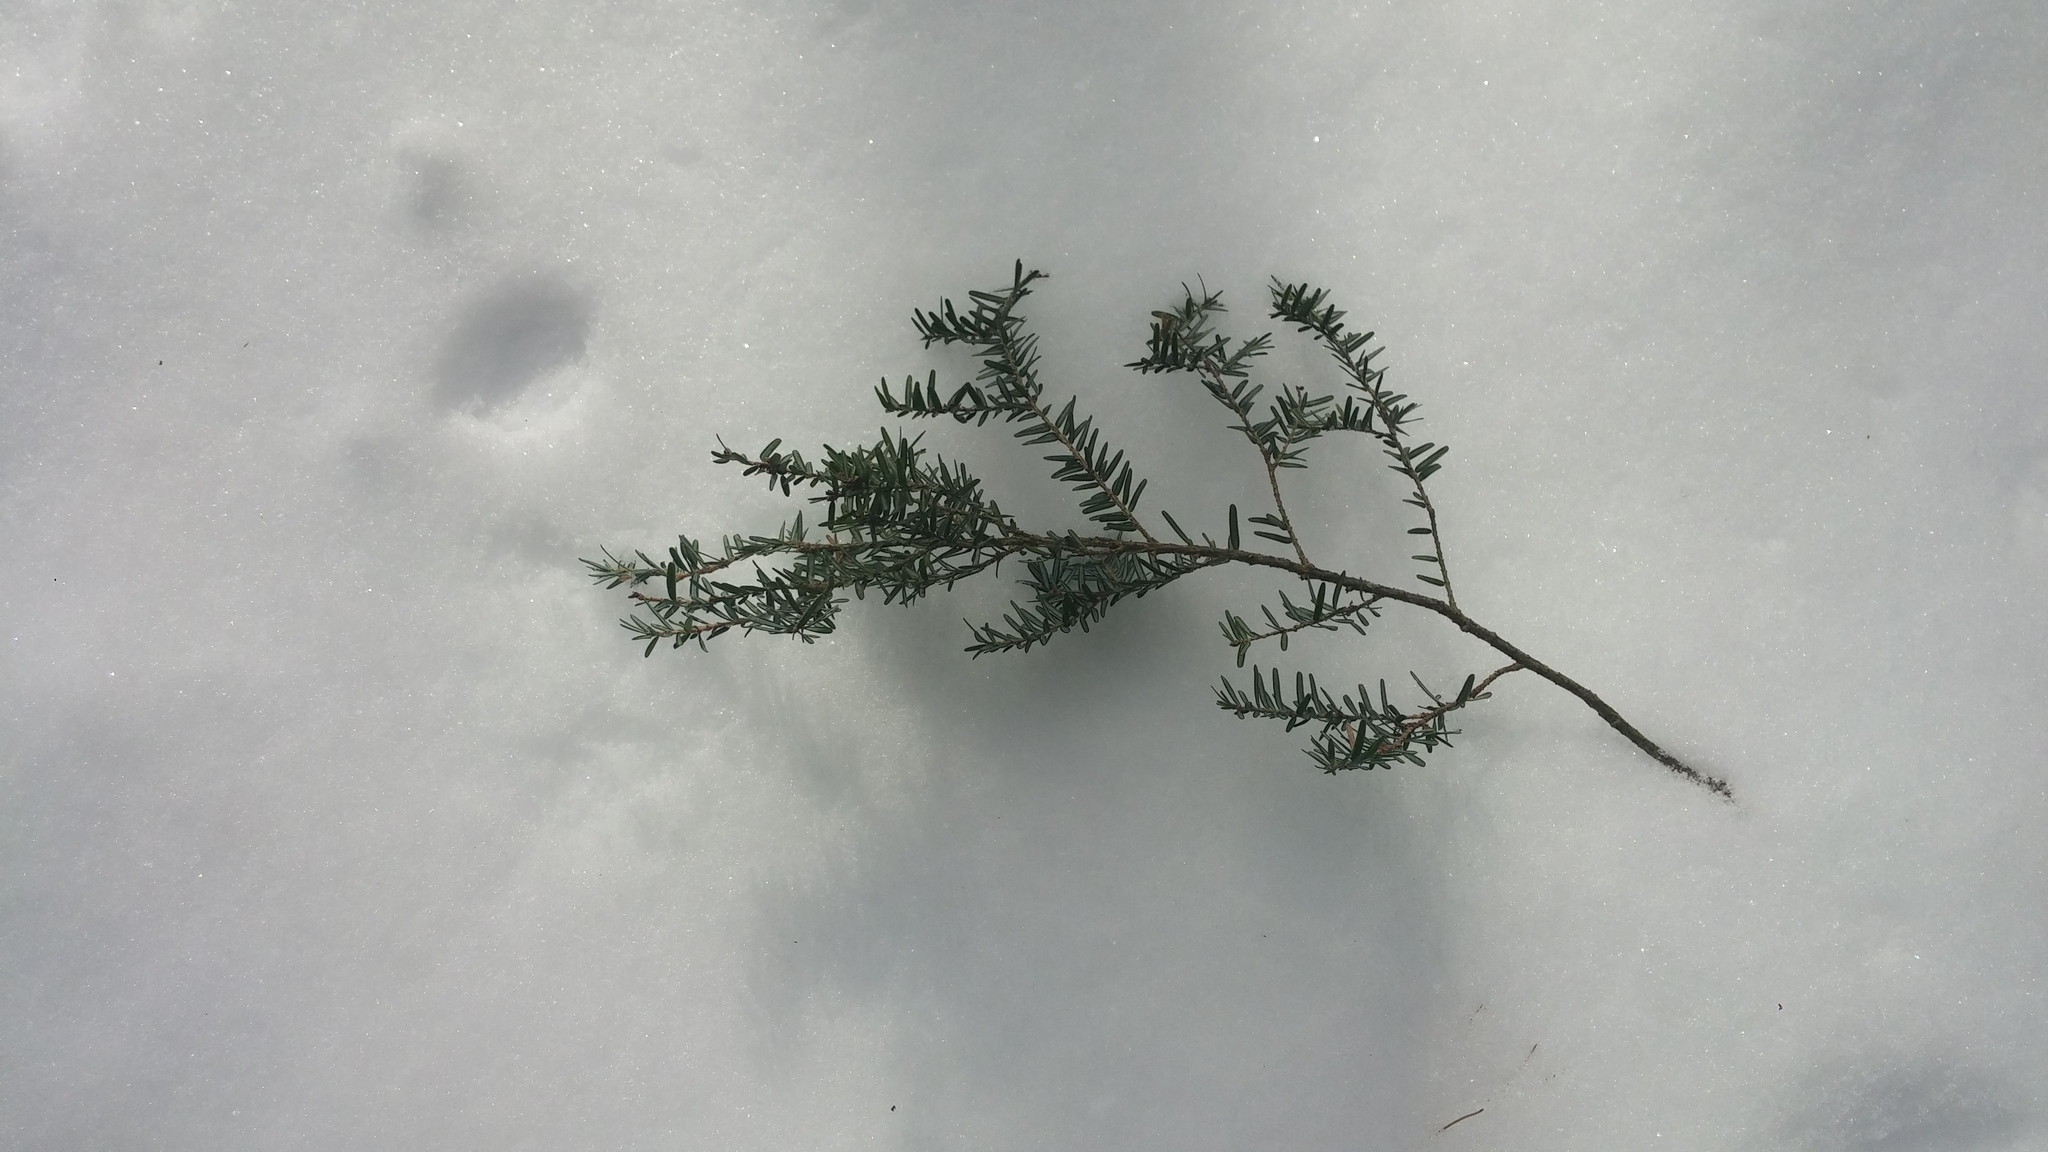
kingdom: Plantae
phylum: Tracheophyta
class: Pinopsida
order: Pinales
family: Pinaceae
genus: Tsuga
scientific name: Tsuga canadensis
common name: Eastern hemlock
